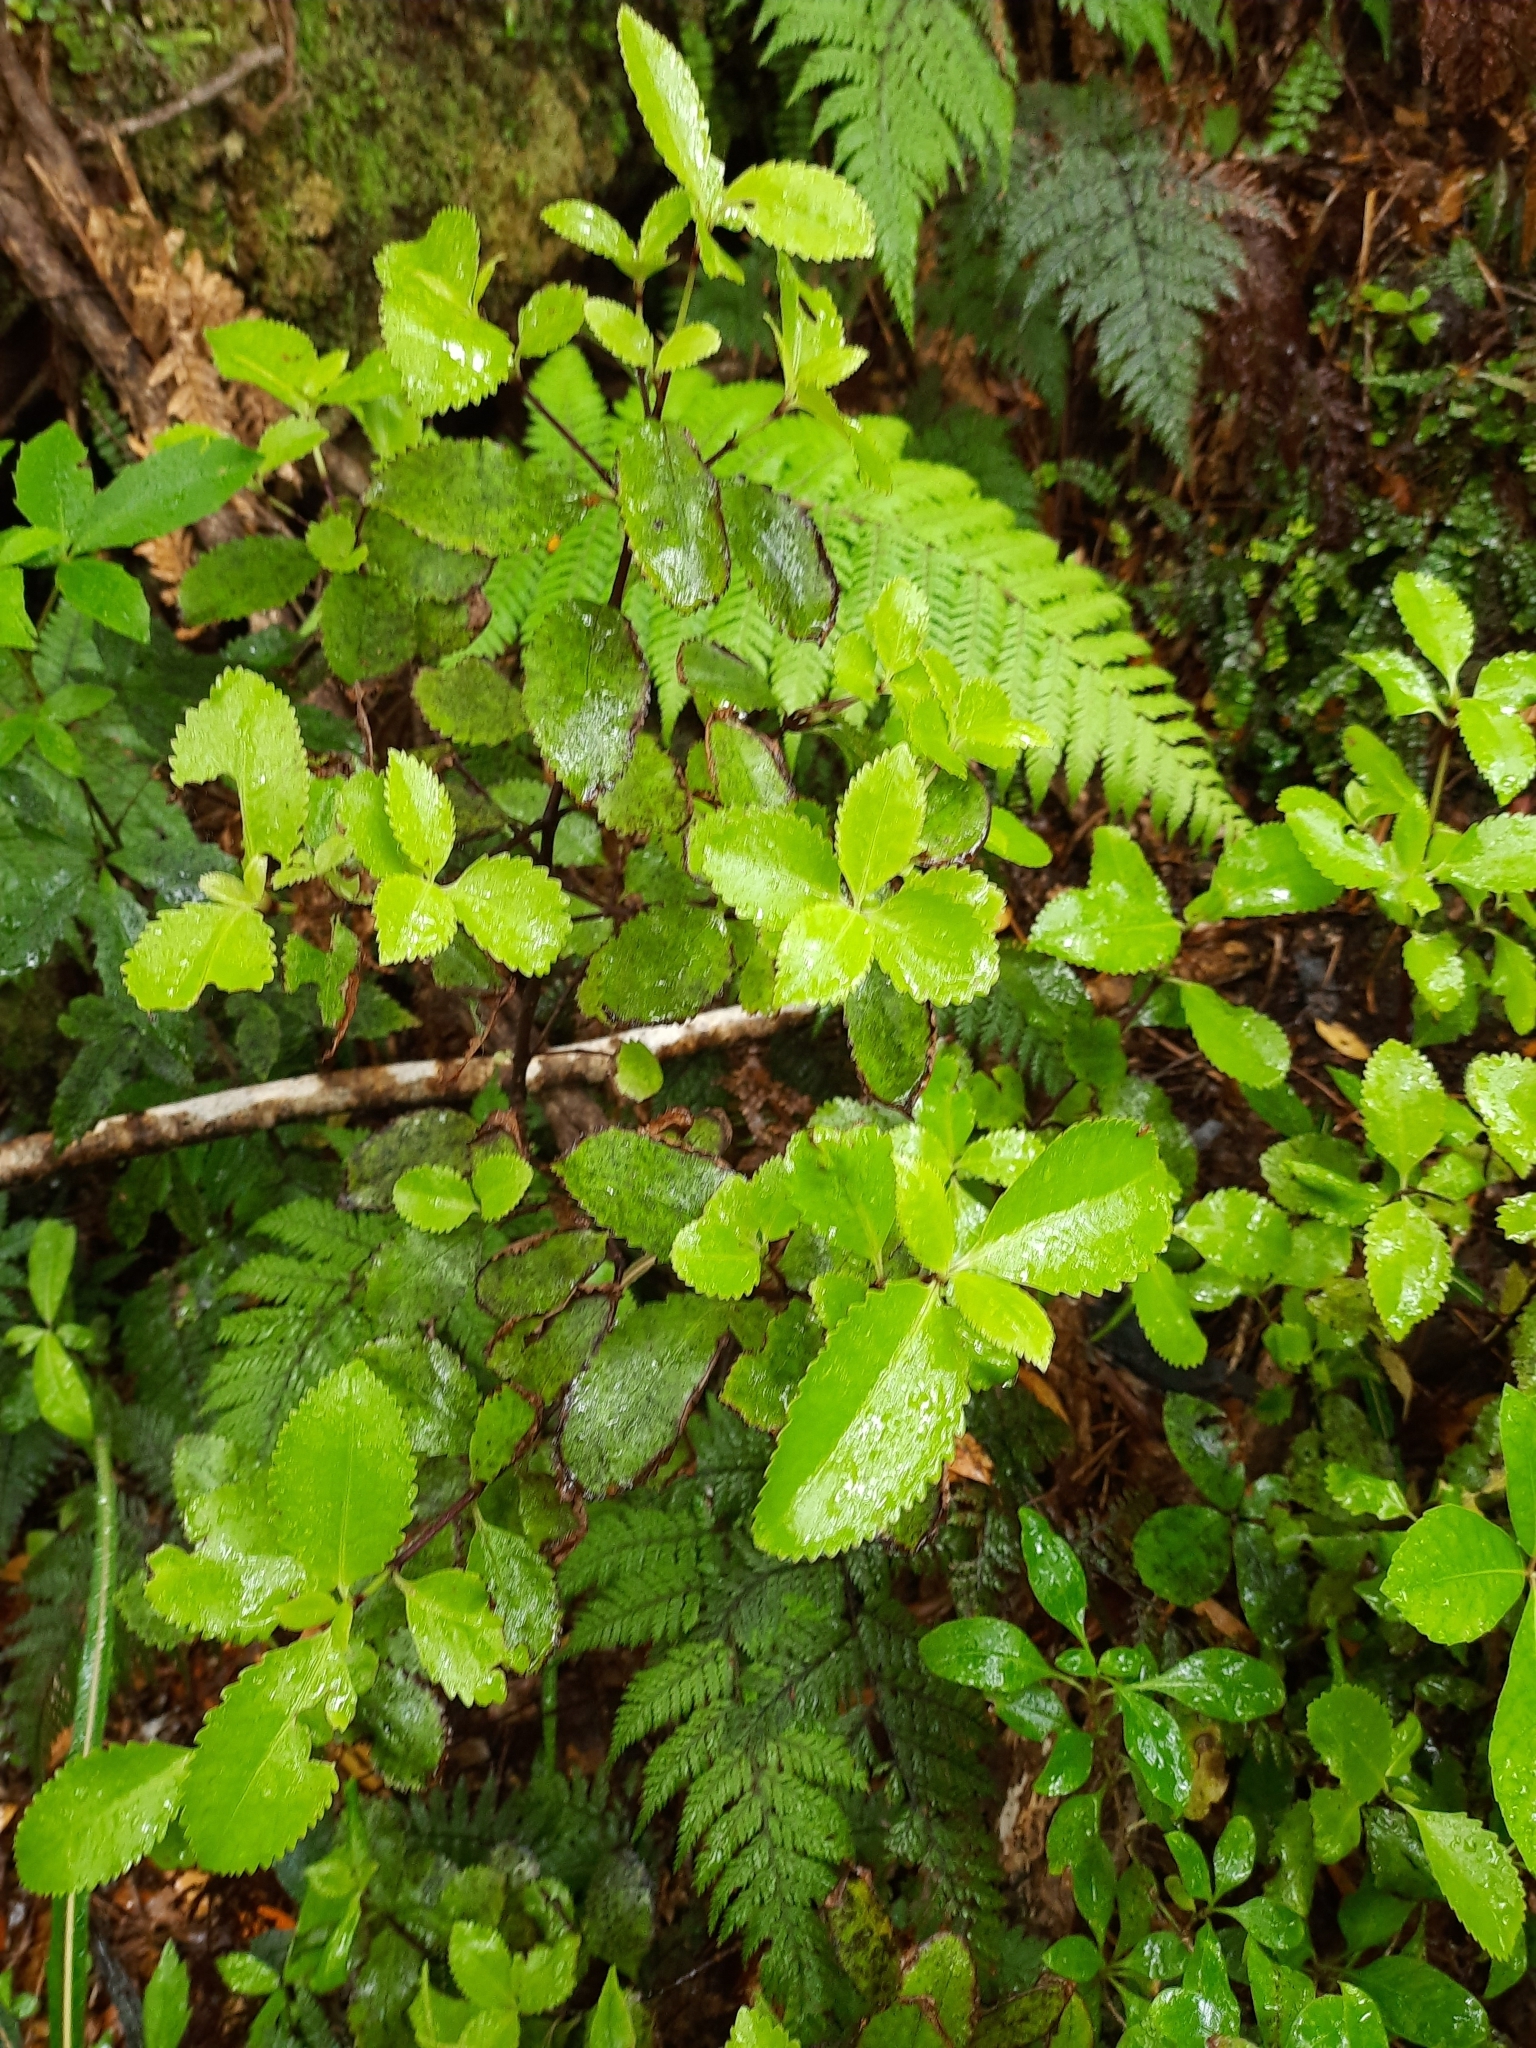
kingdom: Plantae
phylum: Tracheophyta
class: Magnoliopsida
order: Chloranthales
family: Chloranthaceae
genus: Ascarina
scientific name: Ascarina lucida
